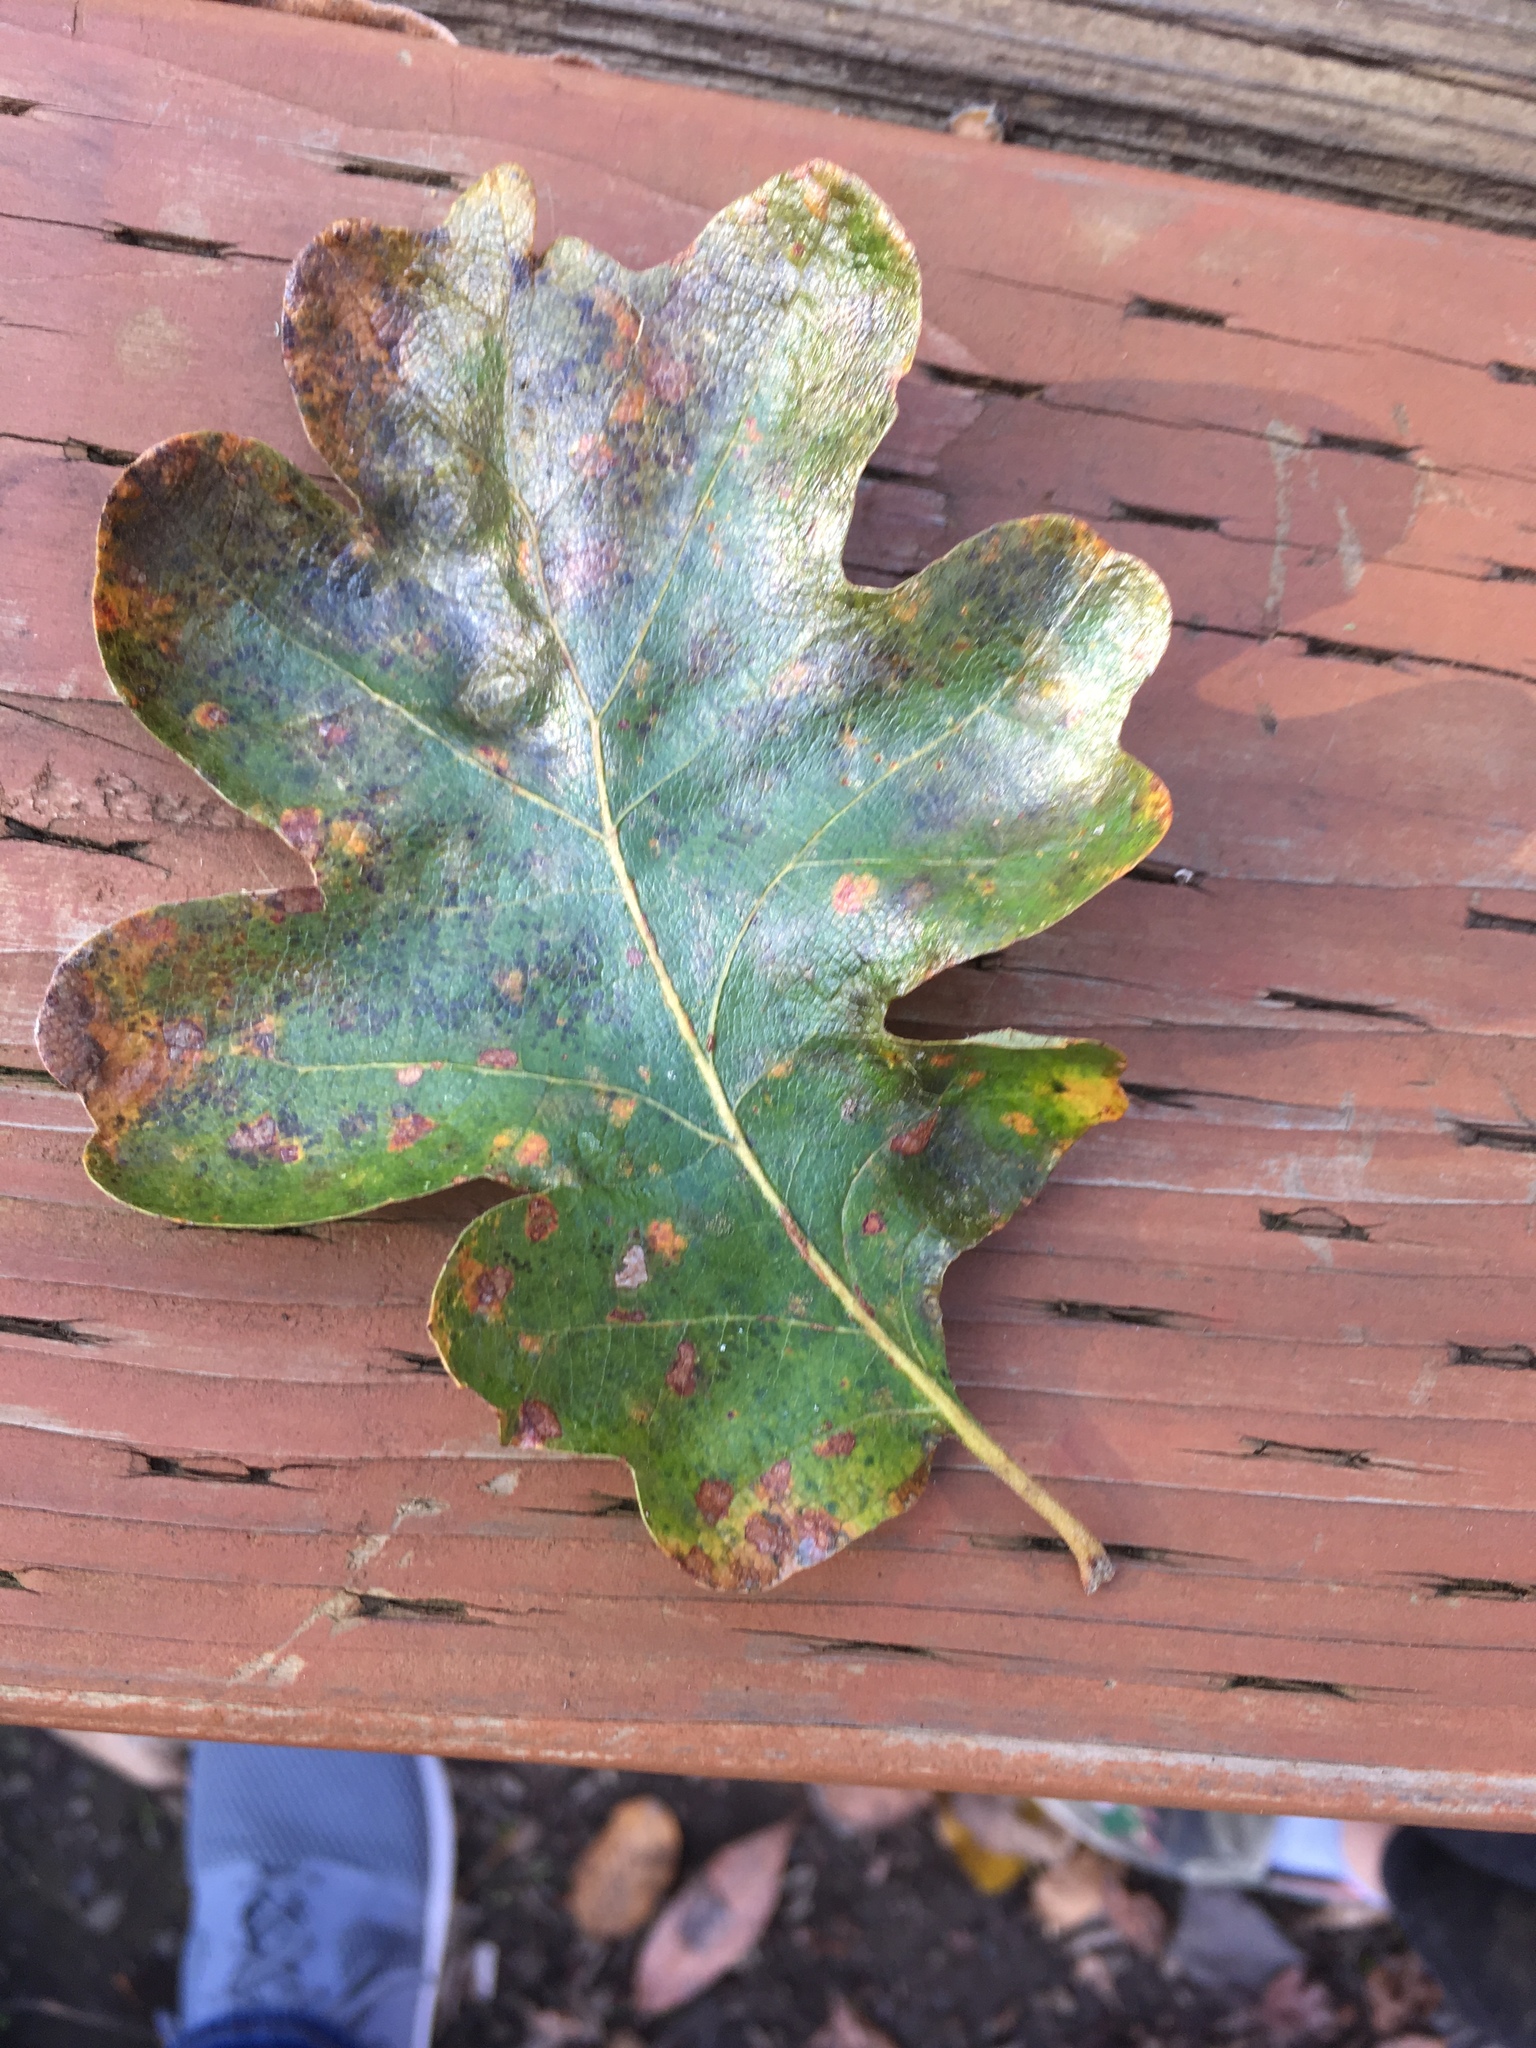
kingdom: Plantae
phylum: Tracheophyta
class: Magnoliopsida
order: Fagales
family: Fagaceae
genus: Quercus
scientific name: Quercus garryana
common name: Garry oak
